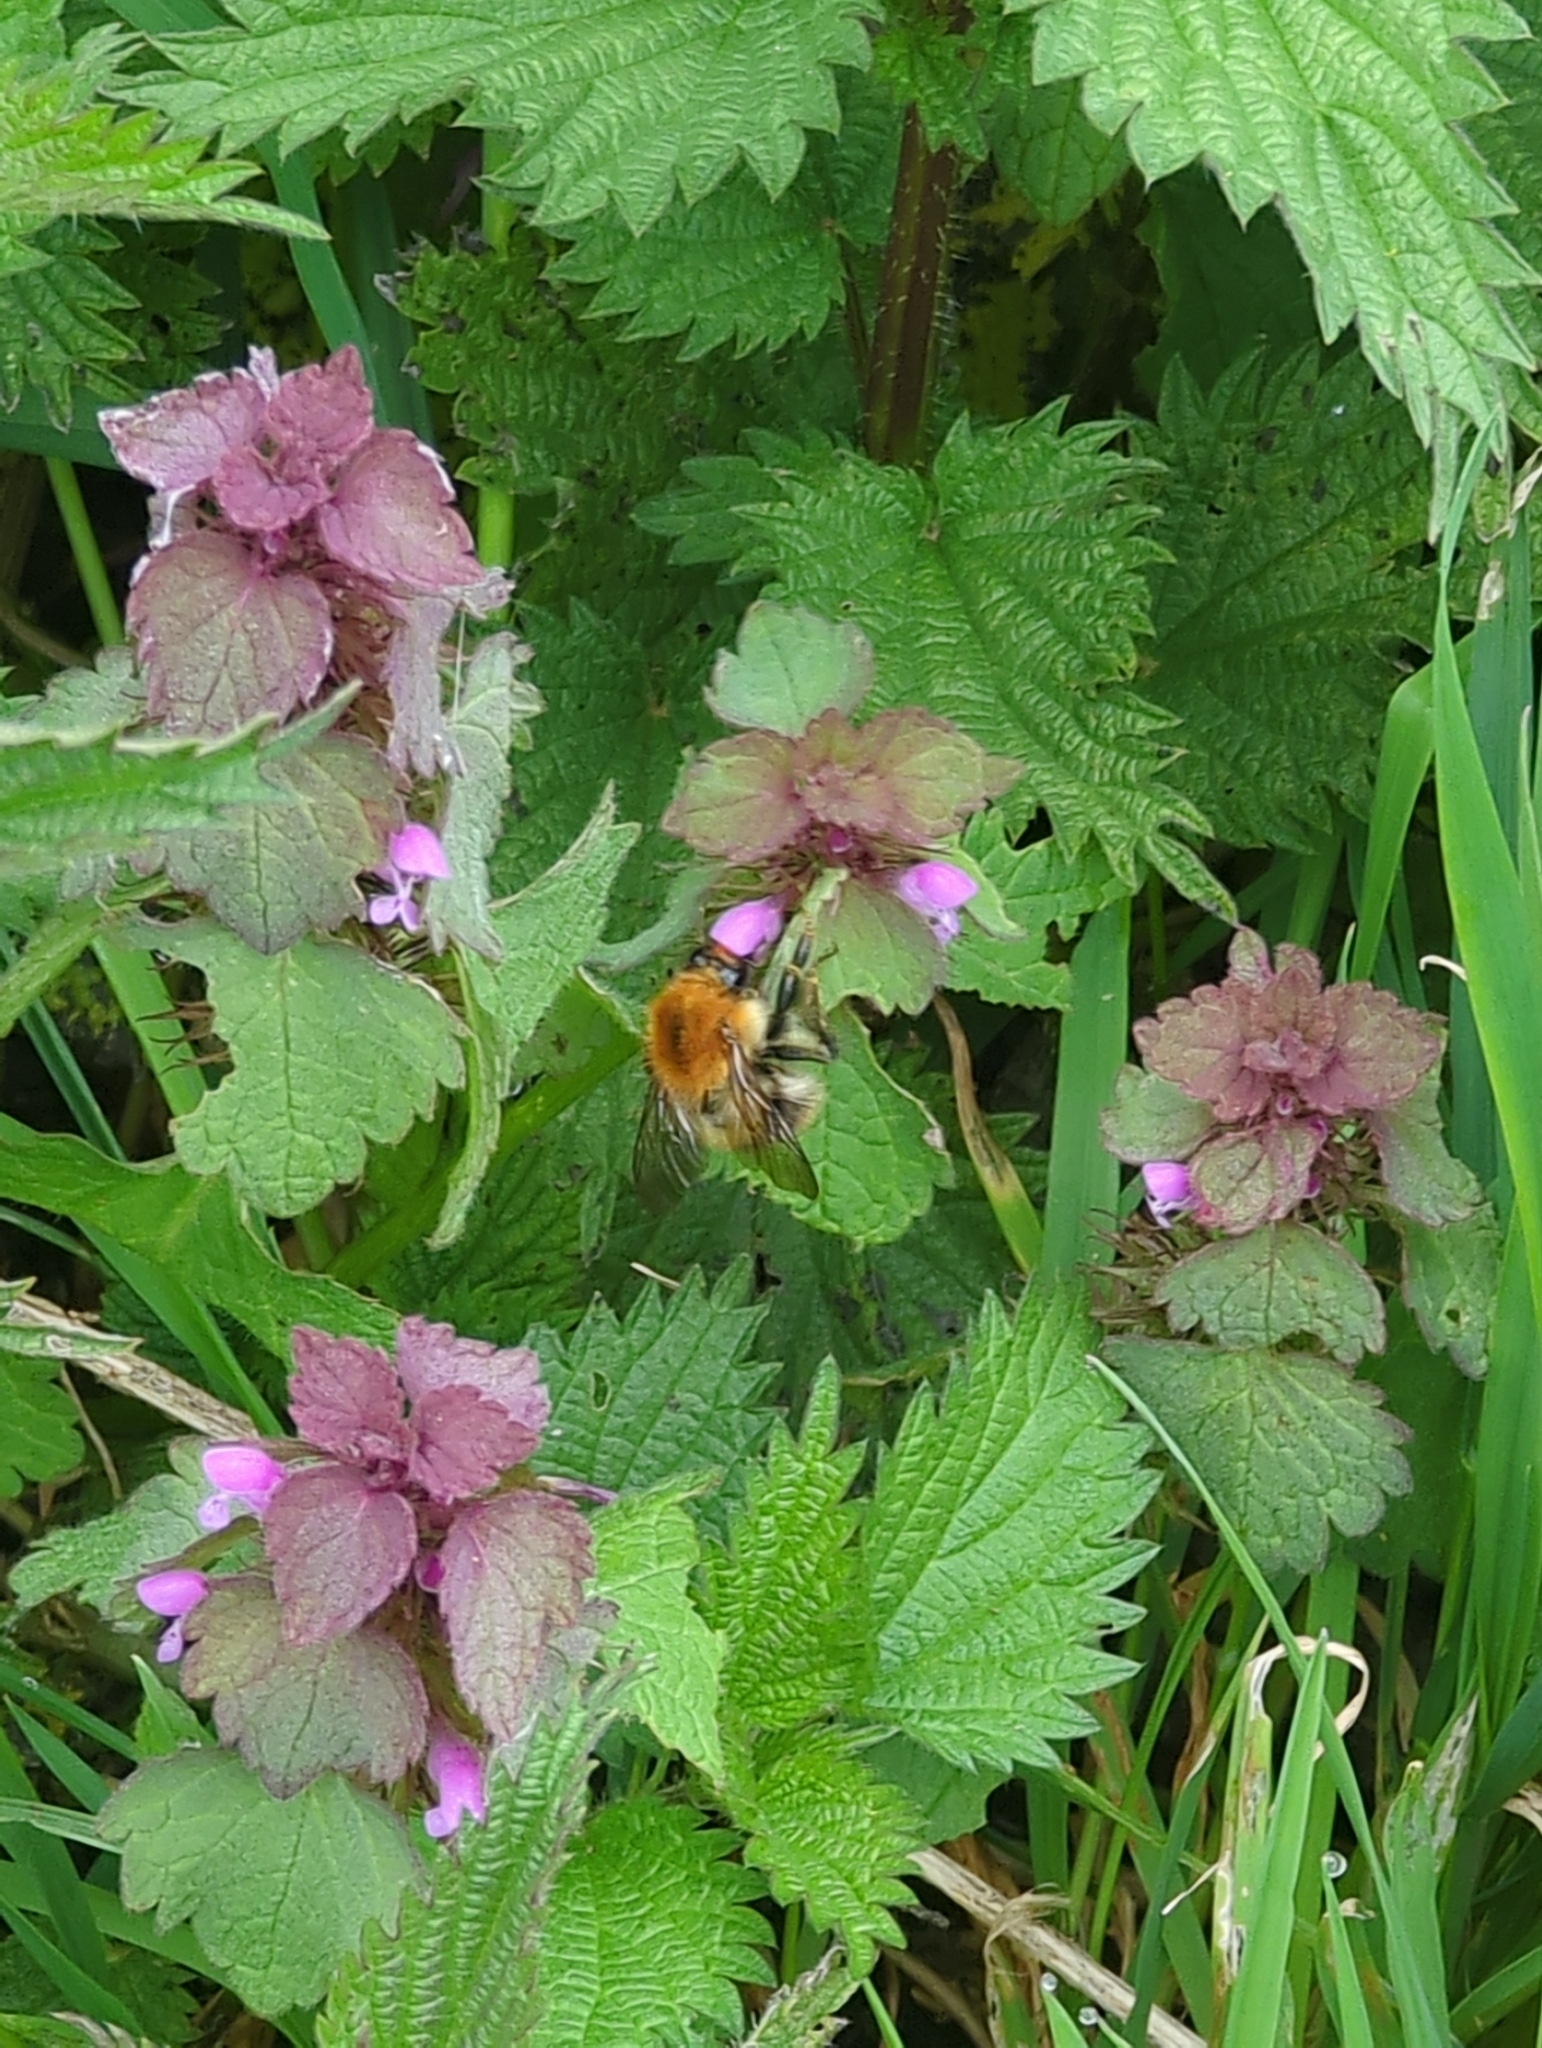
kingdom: Animalia
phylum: Arthropoda
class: Insecta
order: Hymenoptera
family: Apidae
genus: Bombus
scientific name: Bombus pascuorum
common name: Common carder bee
